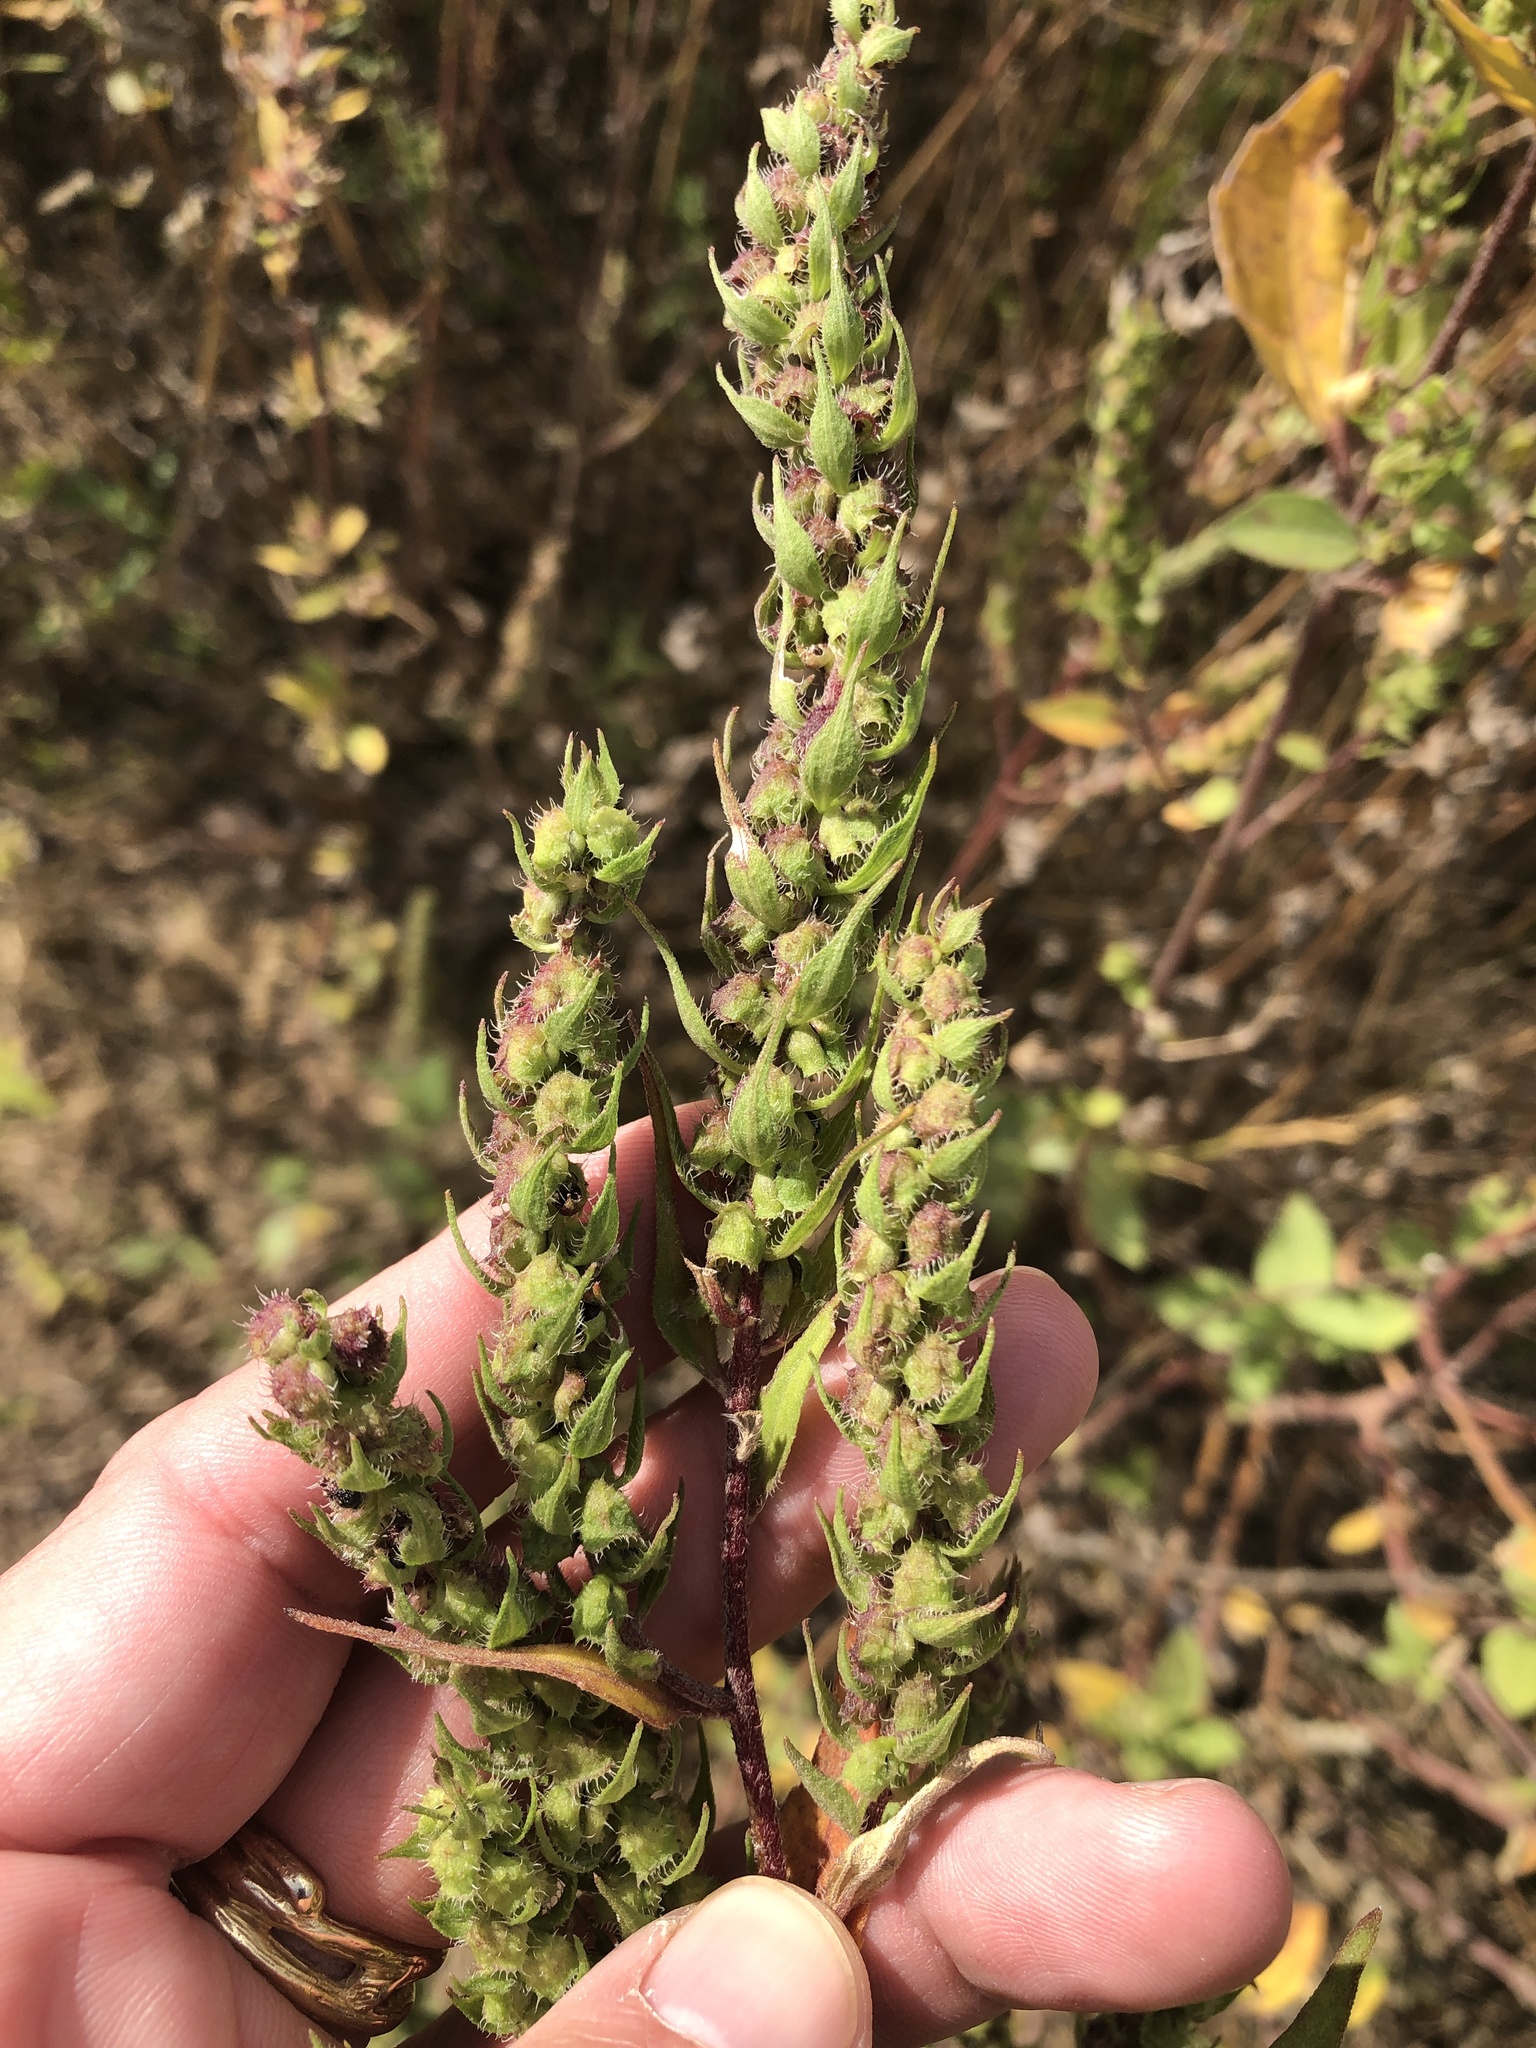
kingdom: Plantae
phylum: Tracheophyta
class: Magnoliopsida
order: Asterales
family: Asteraceae
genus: Iva
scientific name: Iva annua
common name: Marsh-elder
